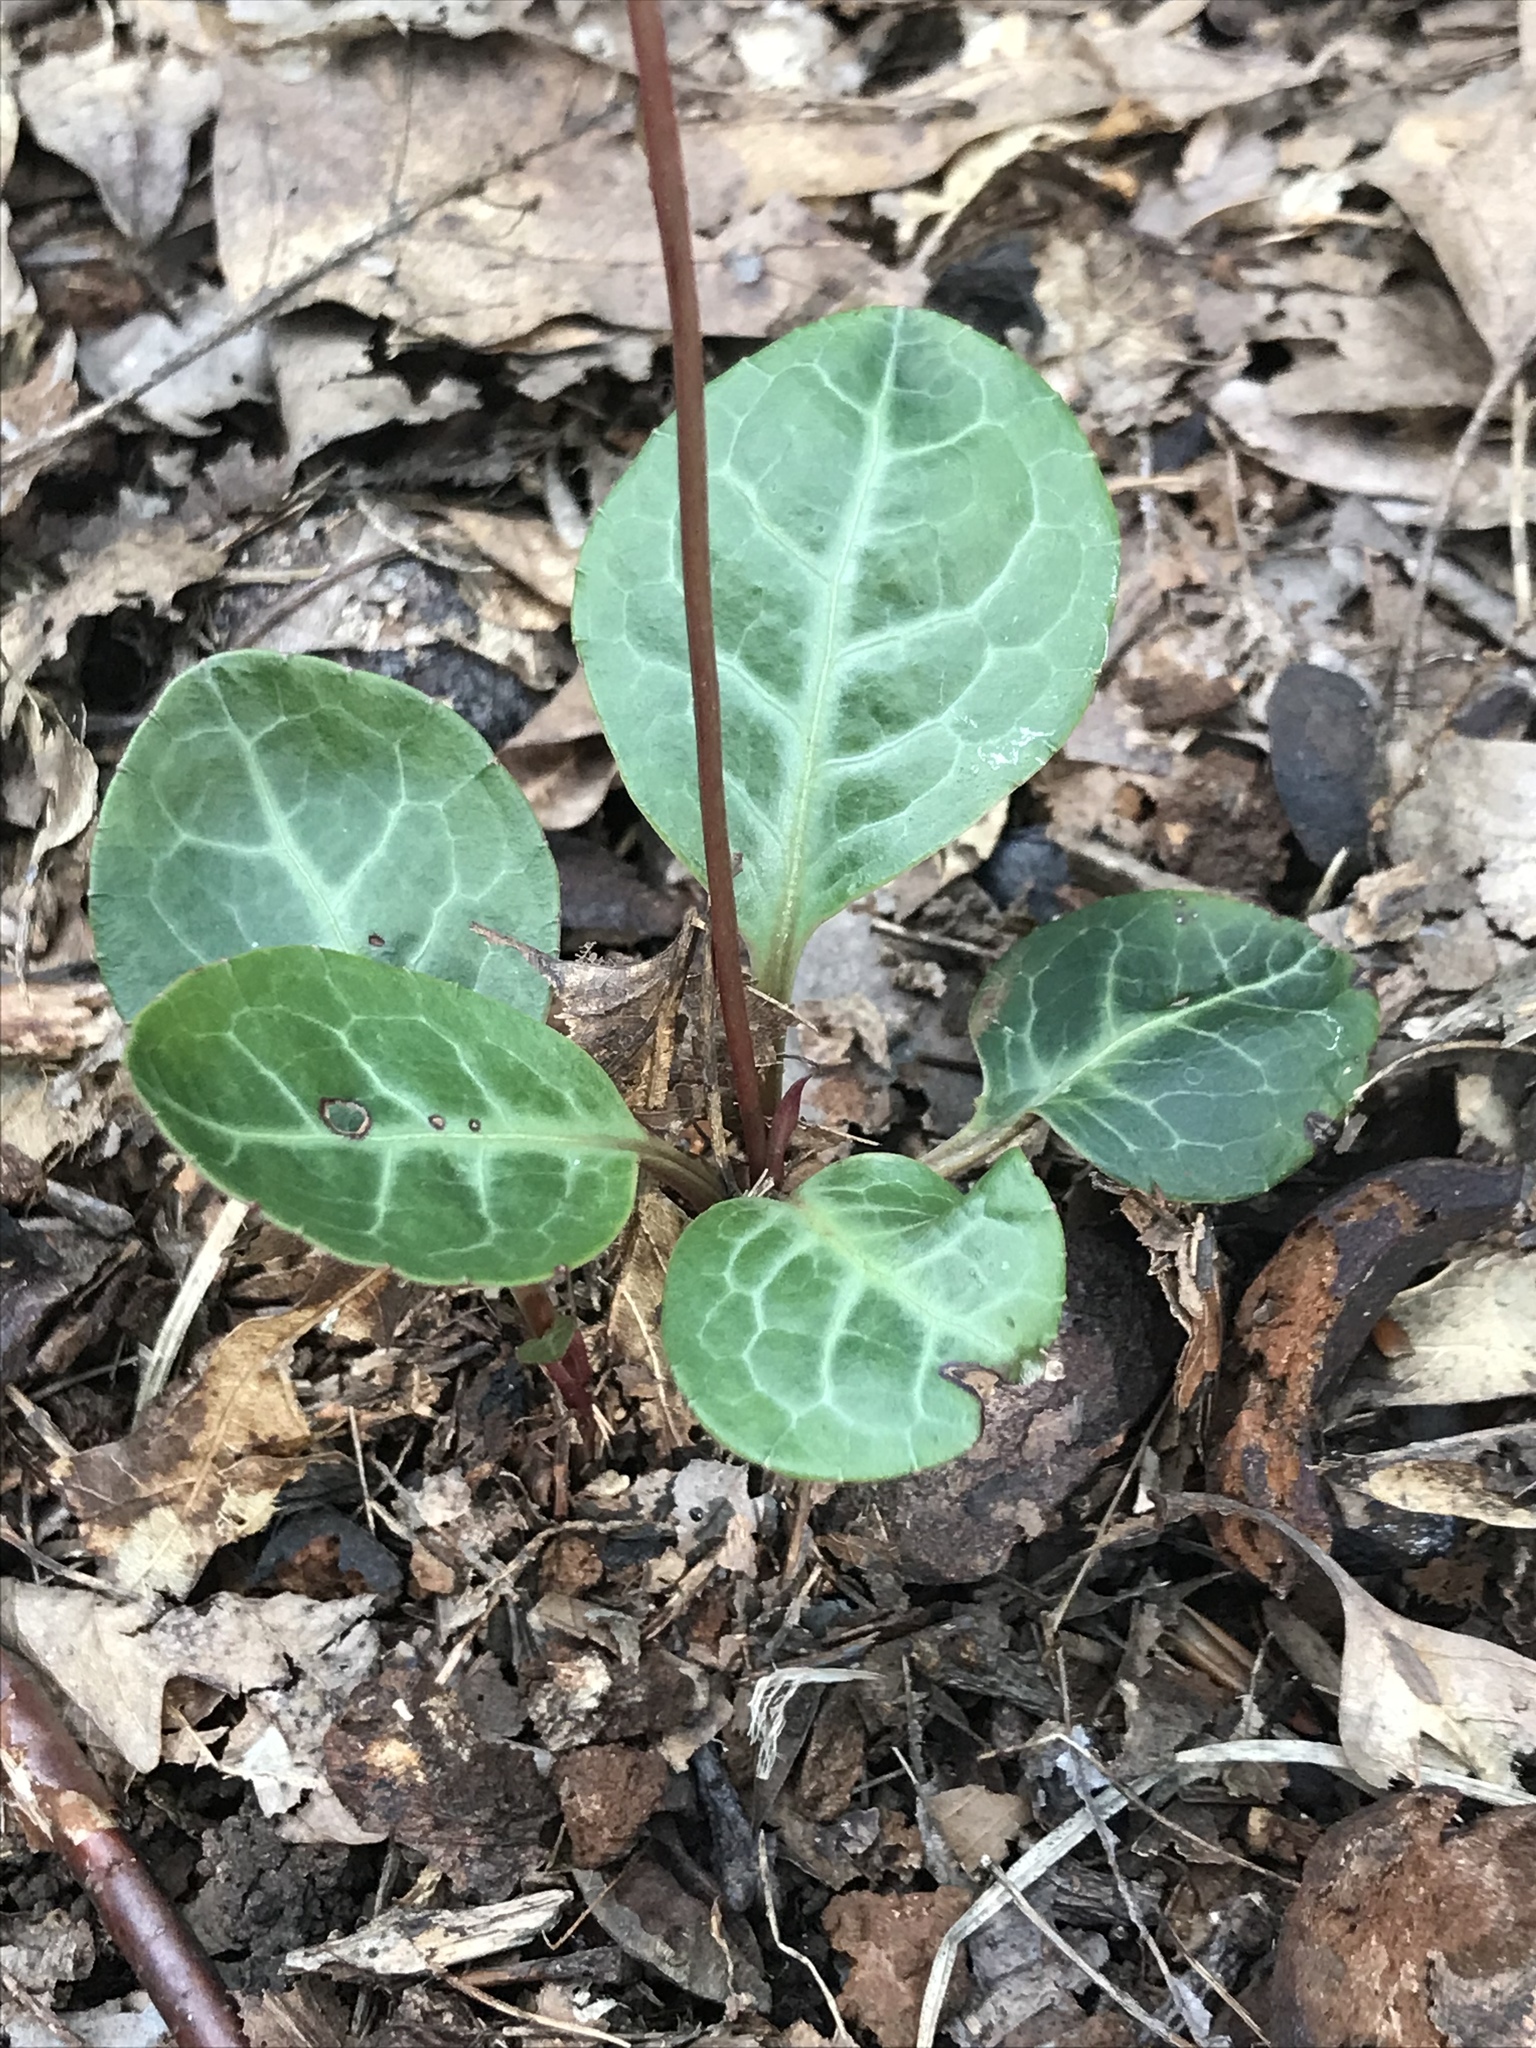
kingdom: Plantae
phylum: Tracheophyta
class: Magnoliopsida
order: Ericales
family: Ericaceae
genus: Pyrola
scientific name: Pyrola americana
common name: American wintergreen
